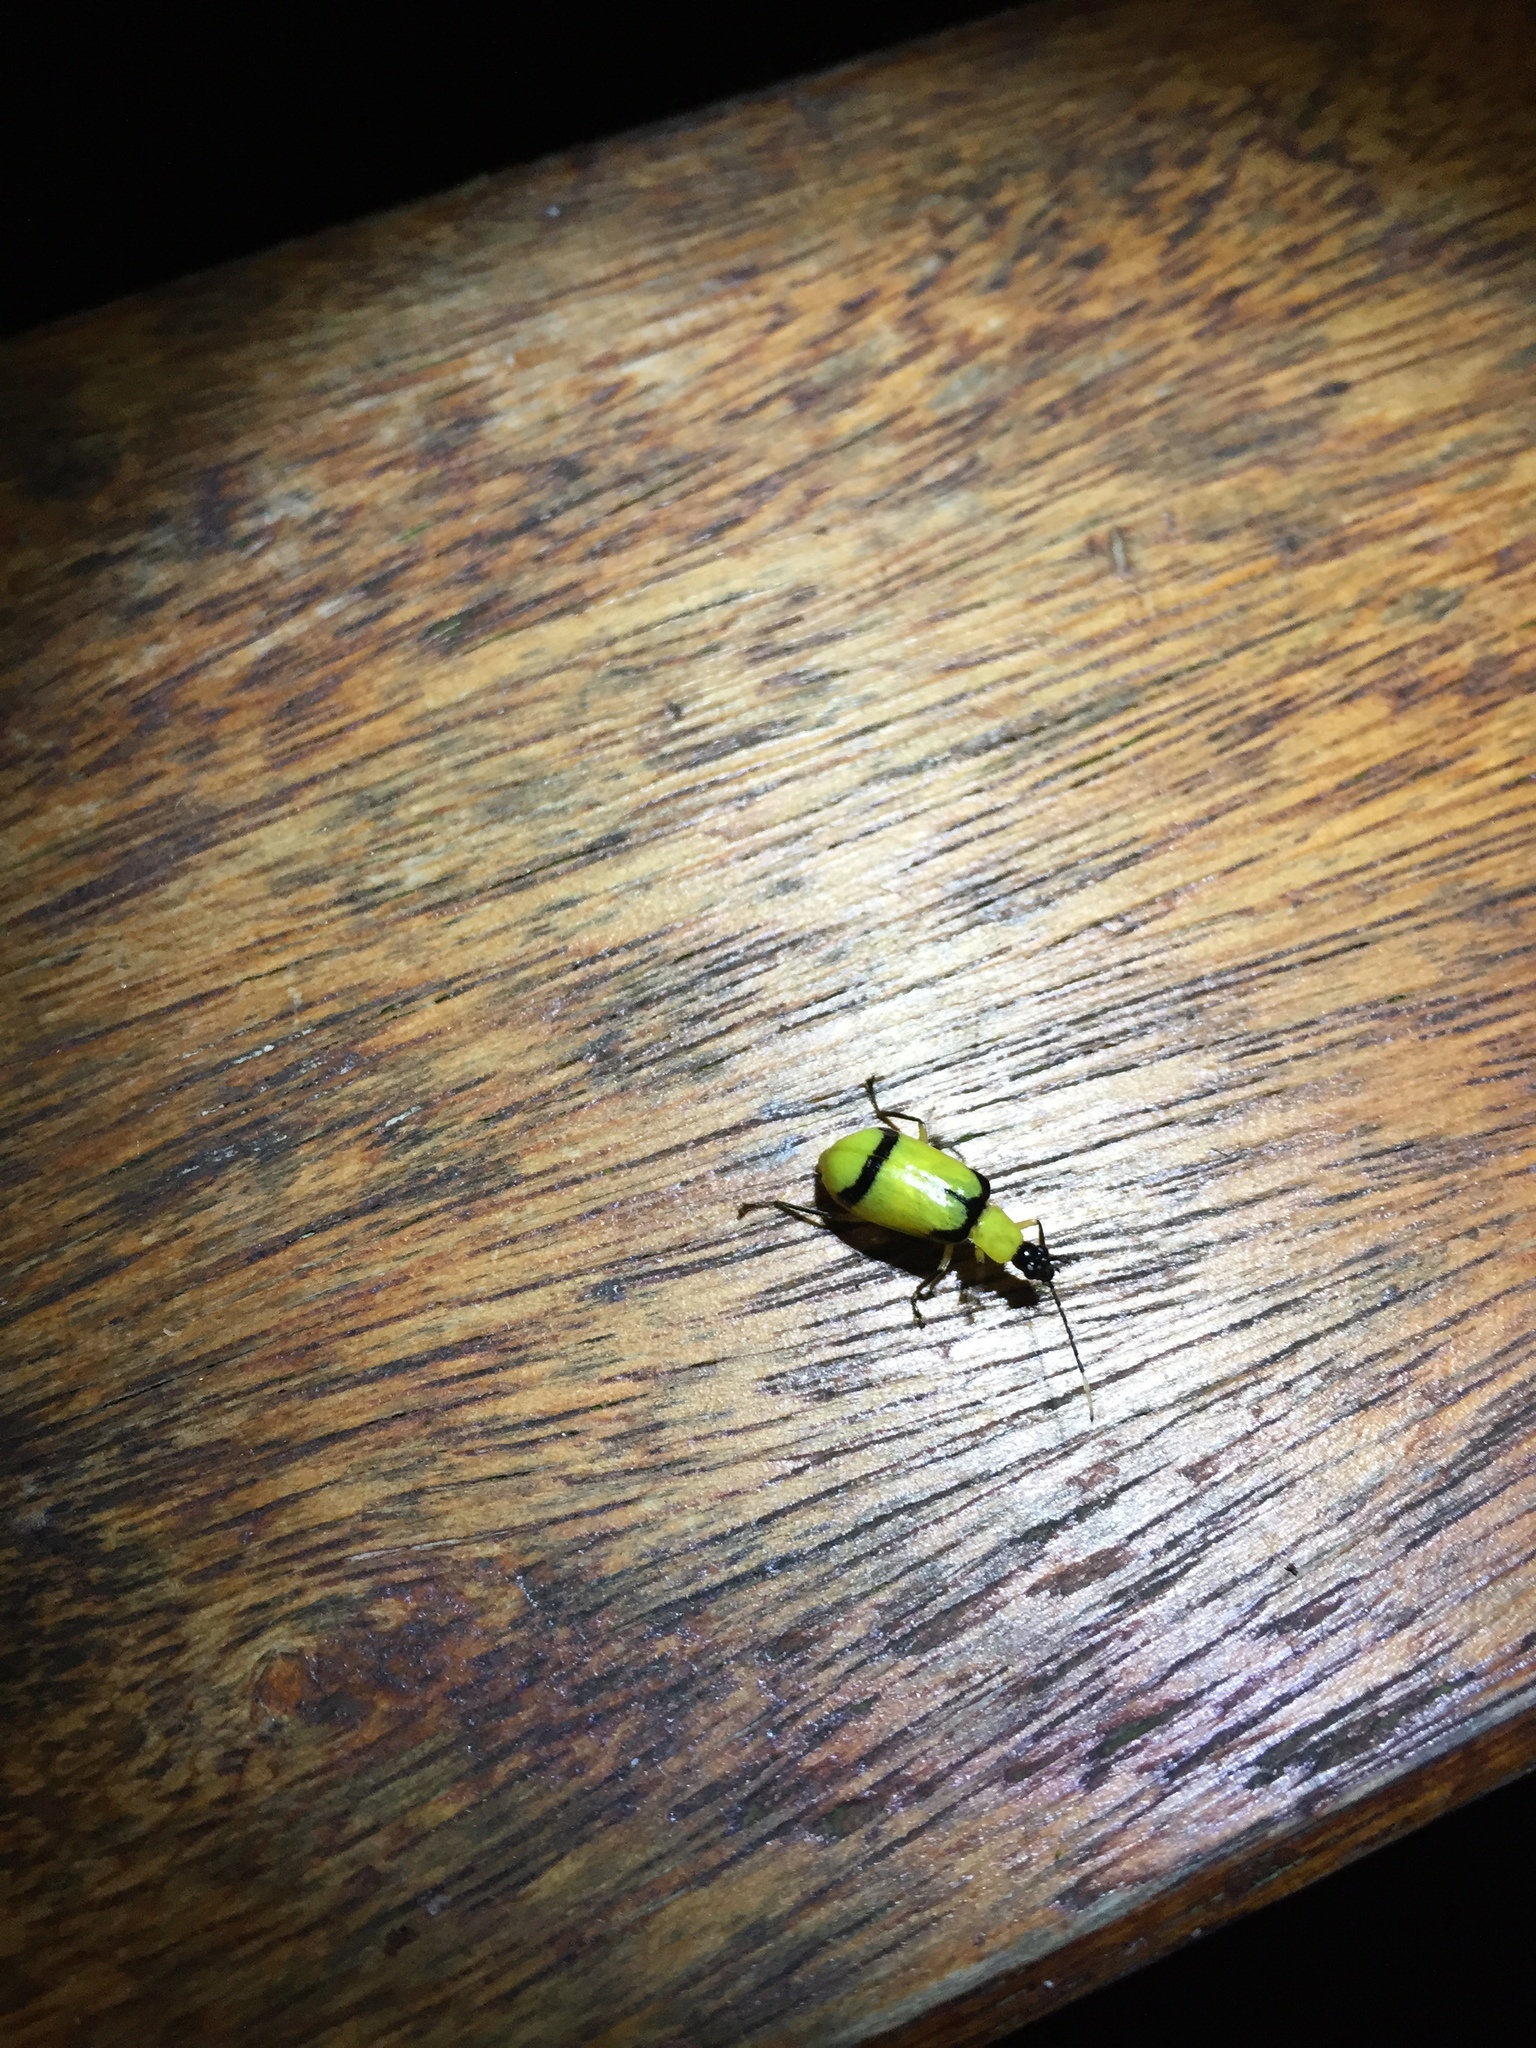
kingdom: Animalia
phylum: Arthropoda
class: Insecta
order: Coleoptera
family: Chrysomelidae
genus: Diabrotica
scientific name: Diabrotica
